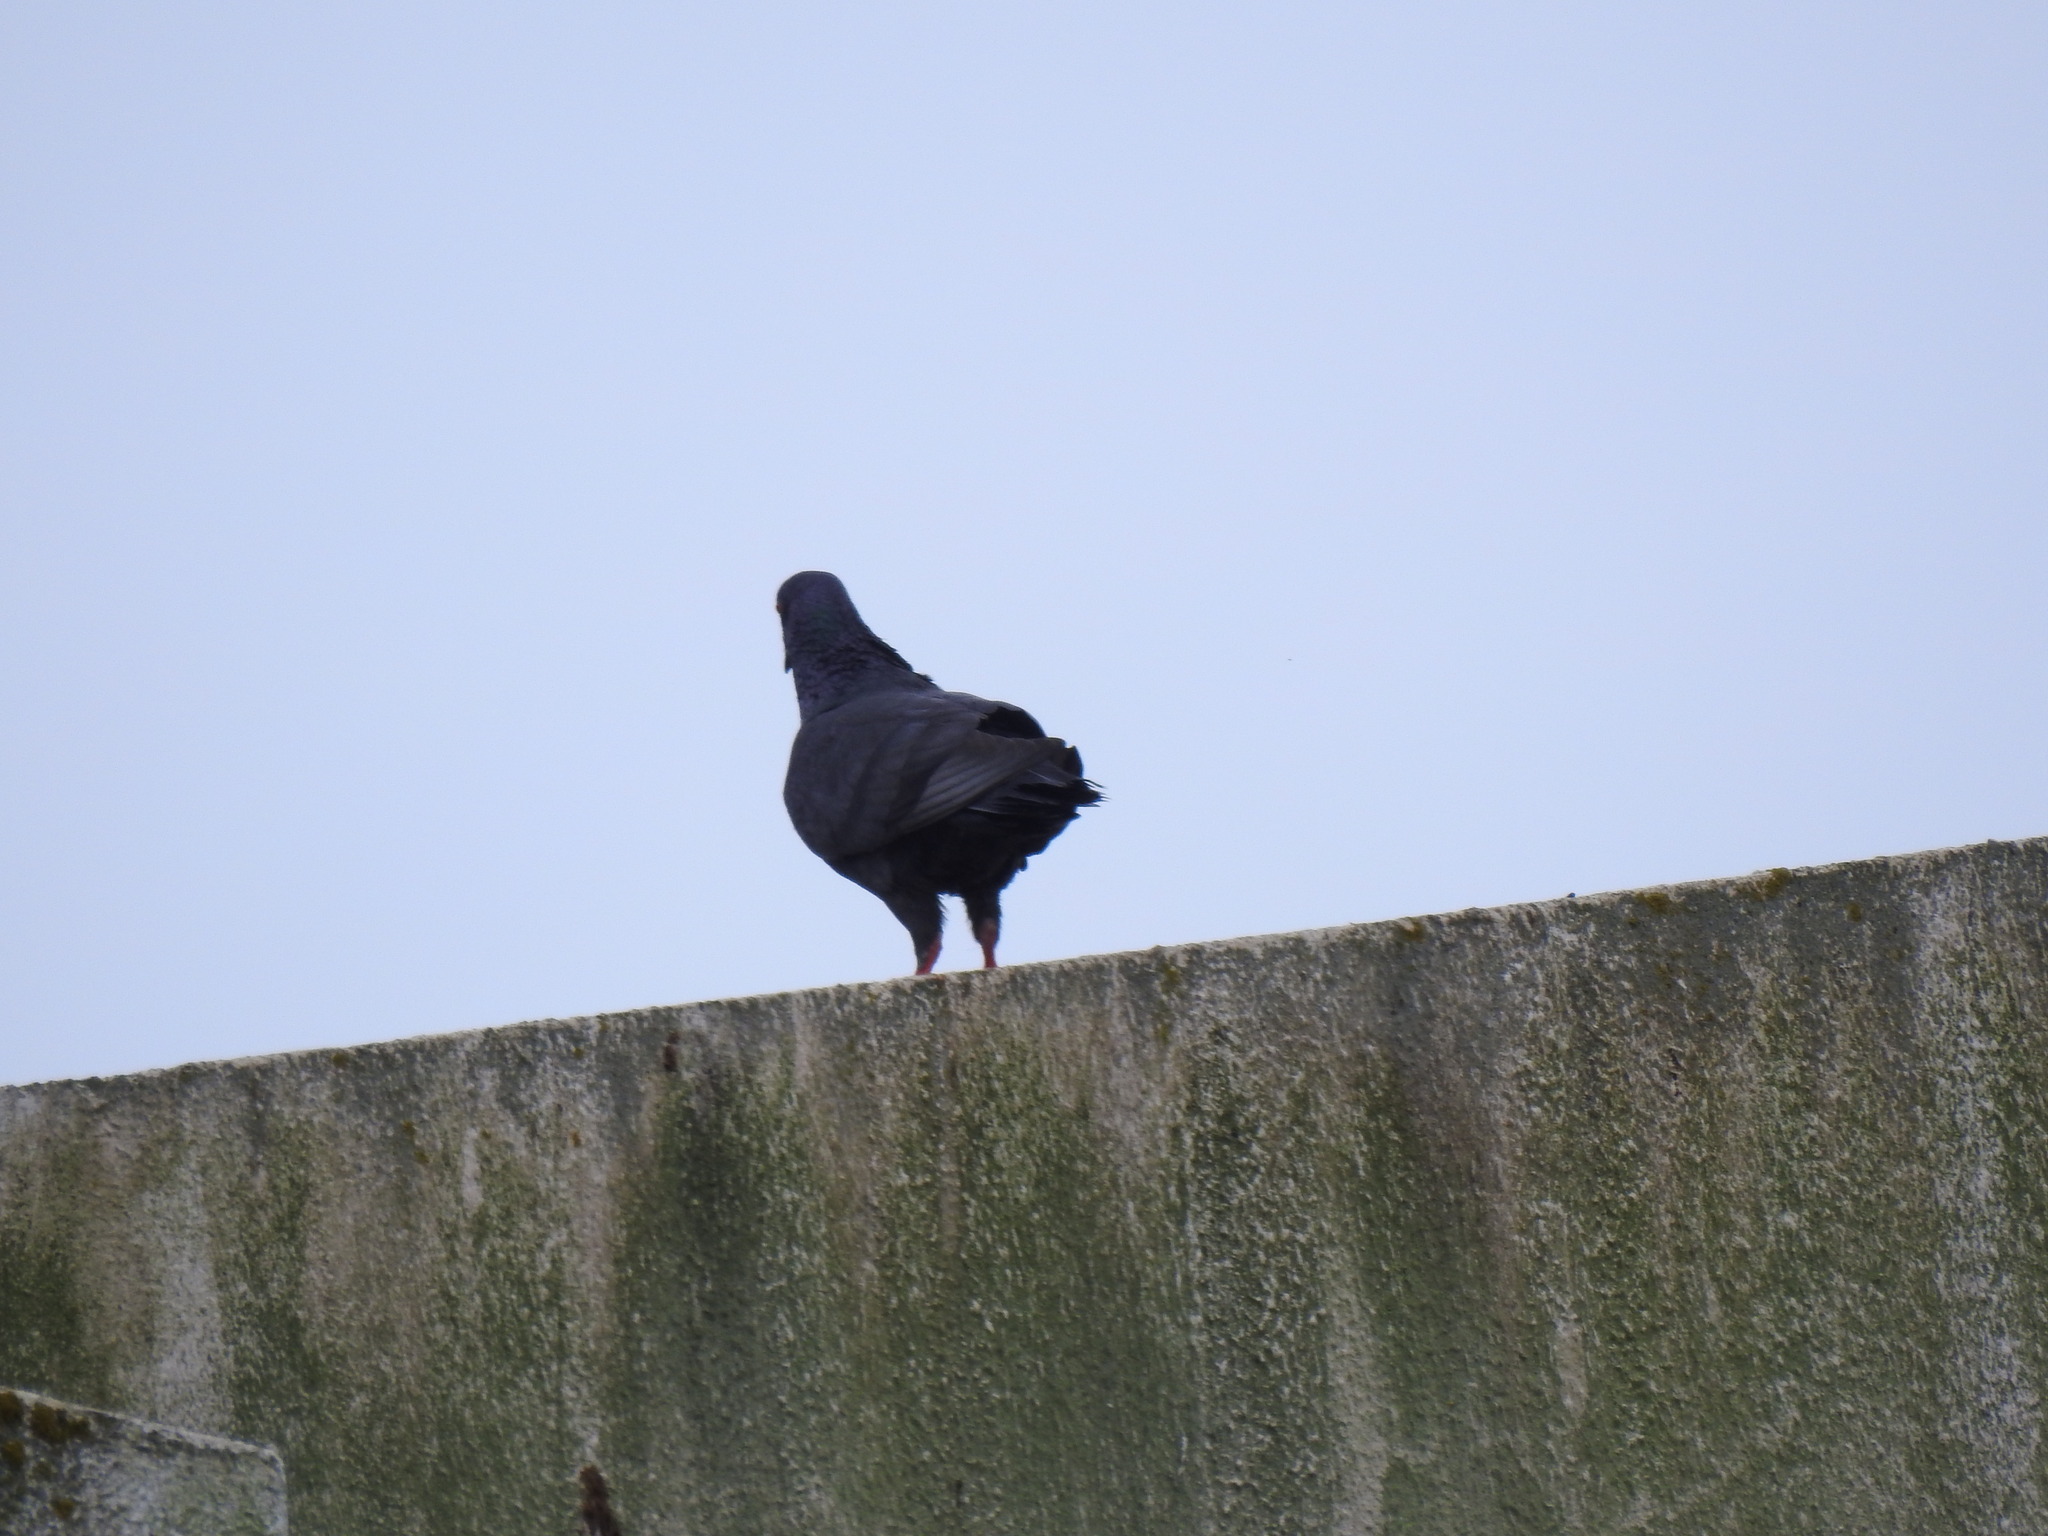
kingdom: Animalia
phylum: Chordata
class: Aves
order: Columbiformes
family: Columbidae
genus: Columba
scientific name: Columba livia
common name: Rock pigeon
